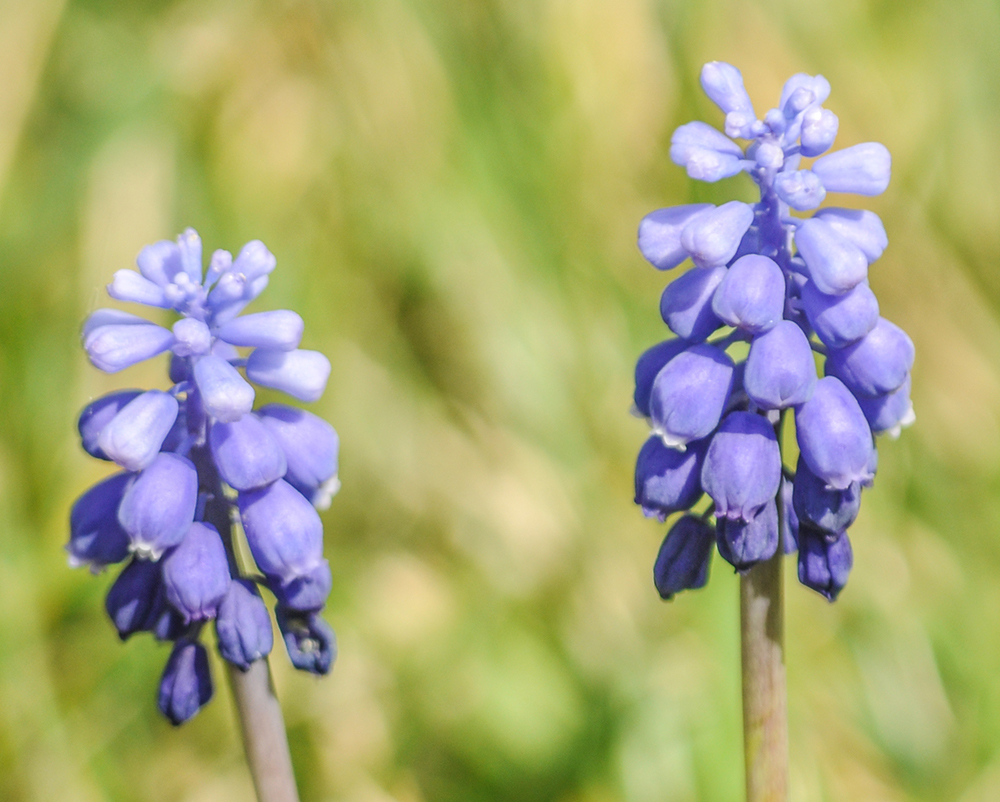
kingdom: Plantae
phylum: Tracheophyta
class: Liliopsida
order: Asparagales
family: Asparagaceae
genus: Muscari
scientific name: Muscari neglectum
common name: Grape-hyacinth
